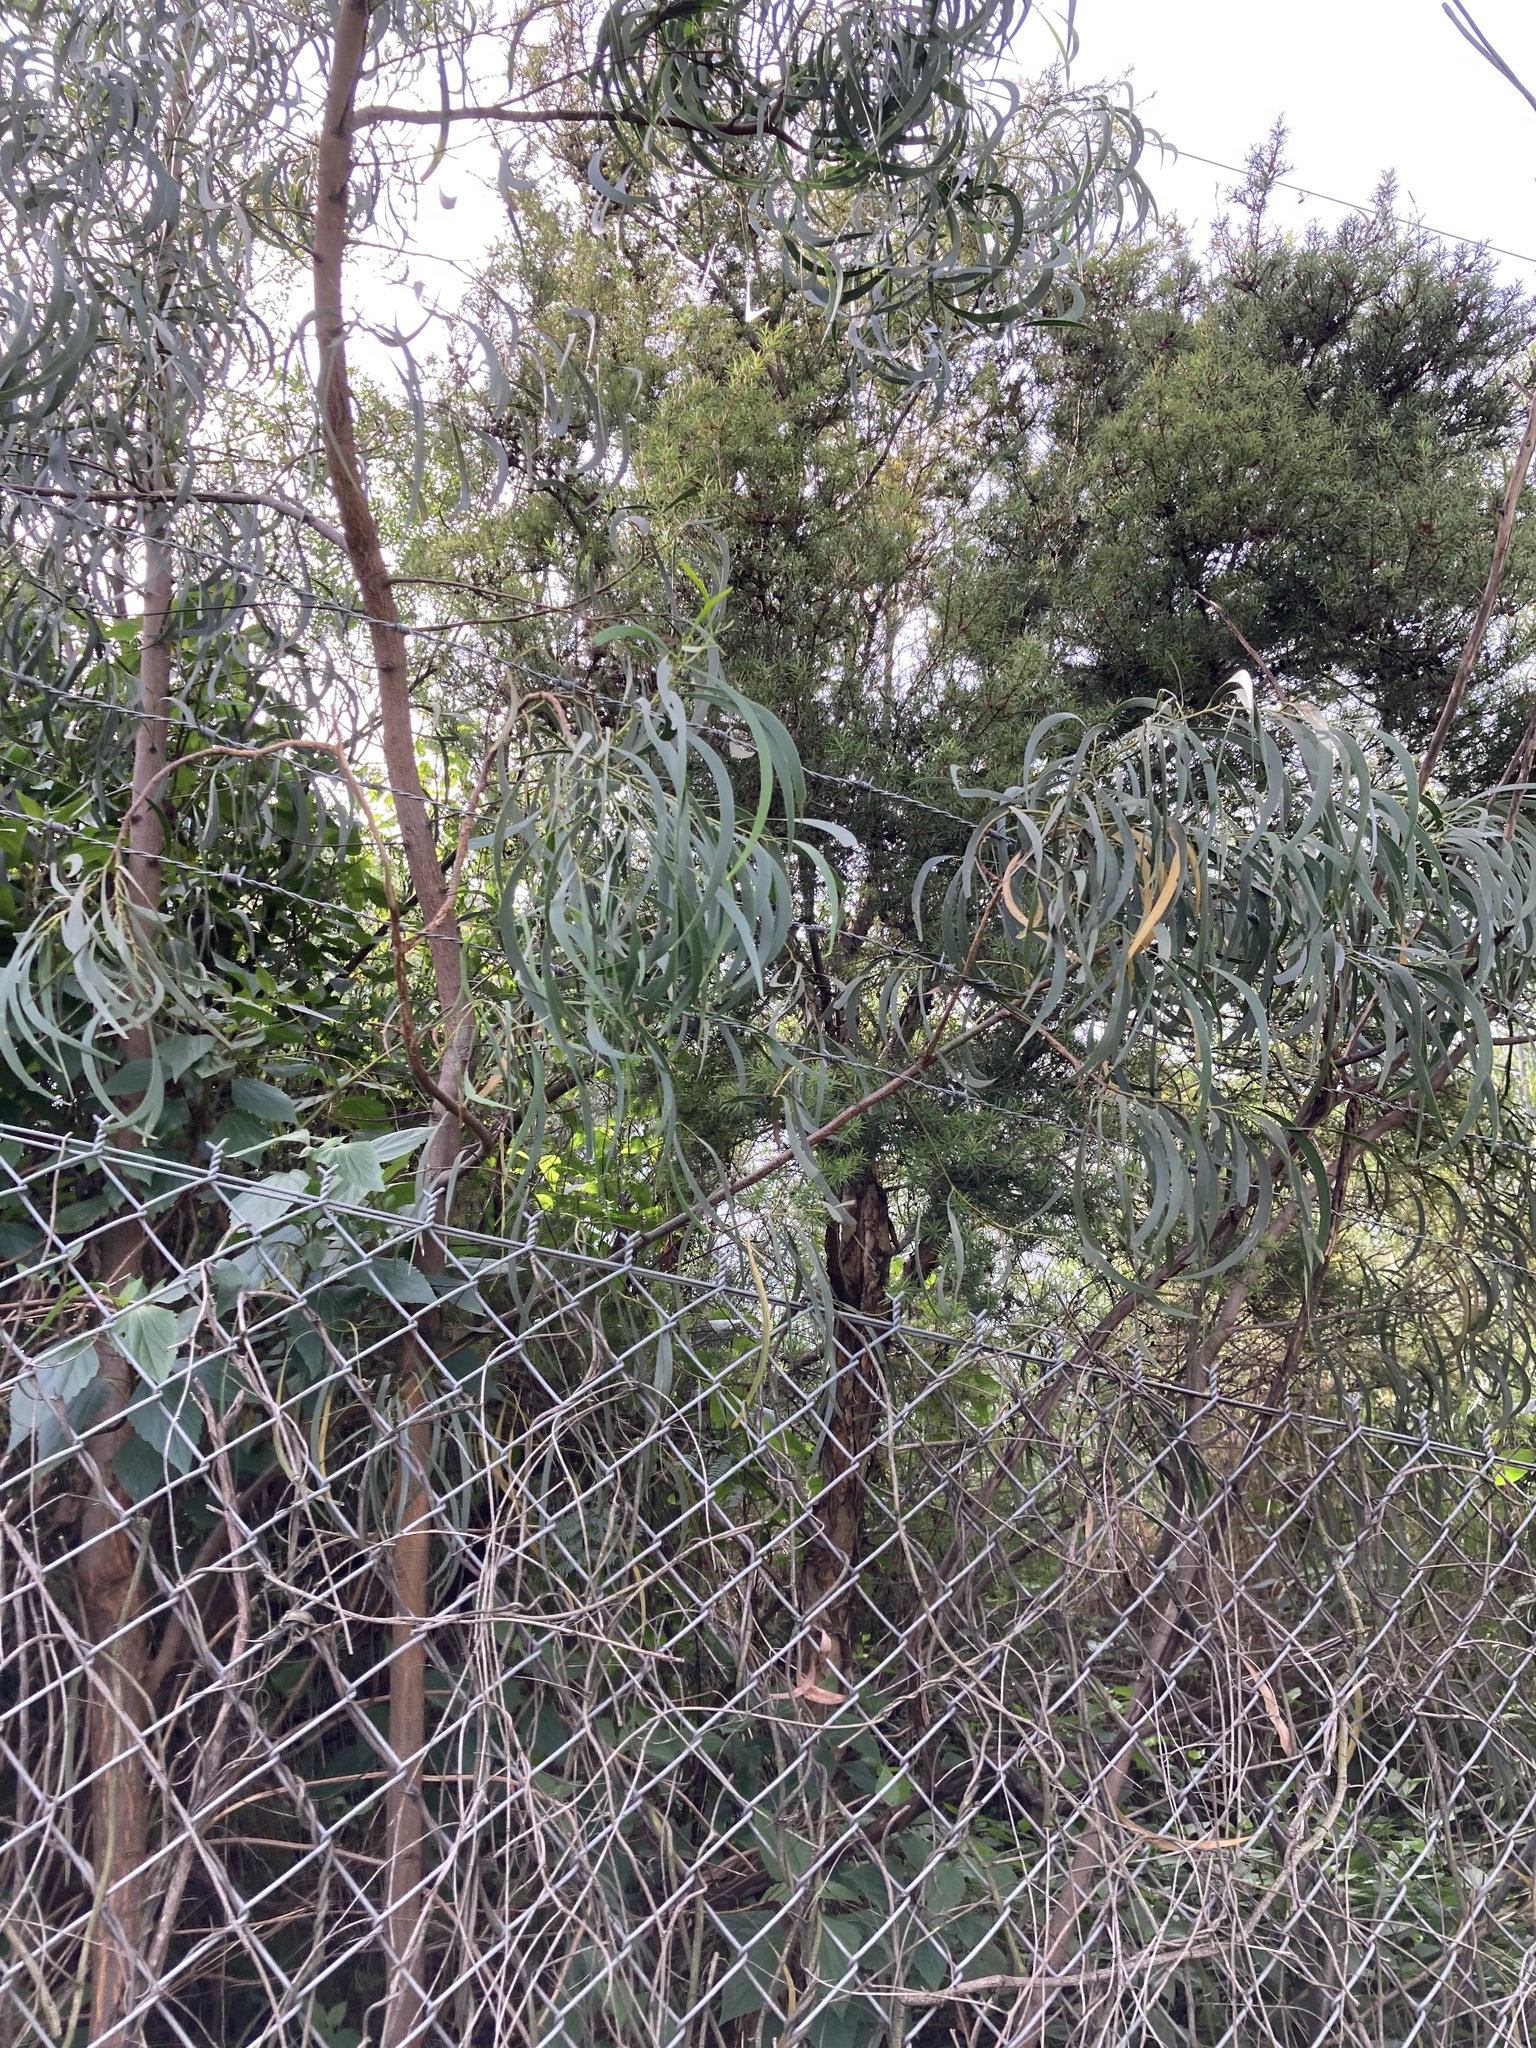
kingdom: Plantae
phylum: Tracheophyta
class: Magnoliopsida
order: Fabales
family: Fabaceae
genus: Acacia
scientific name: Acacia implexa
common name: Black wattle
